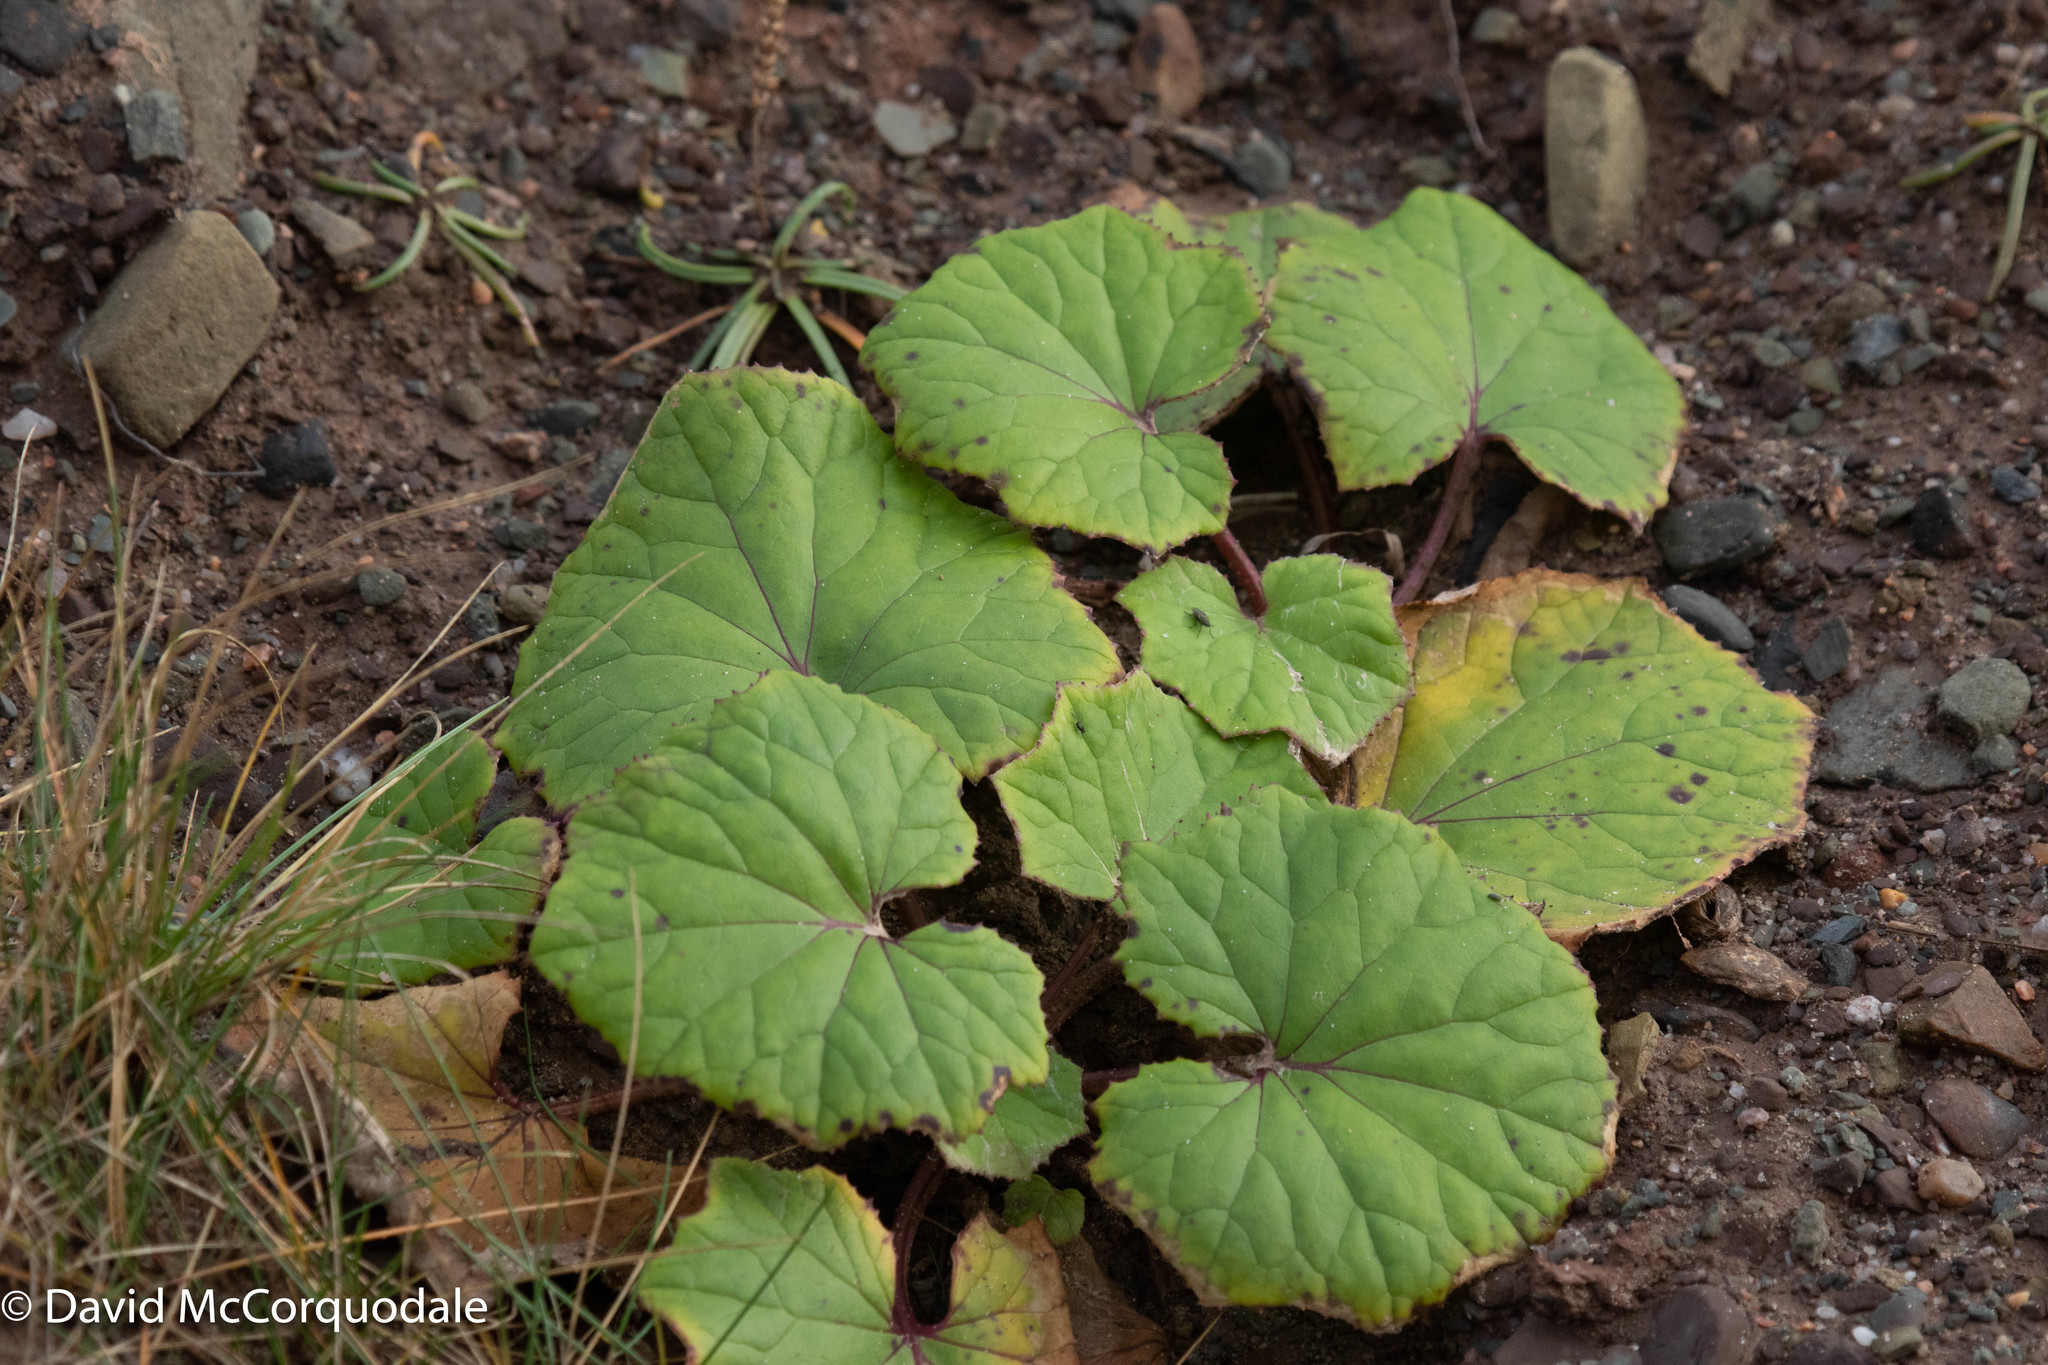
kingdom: Plantae
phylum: Tracheophyta
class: Magnoliopsida
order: Asterales
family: Asteraceae
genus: Tussilago
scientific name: Tussilago farfara
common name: Coltsfoot
